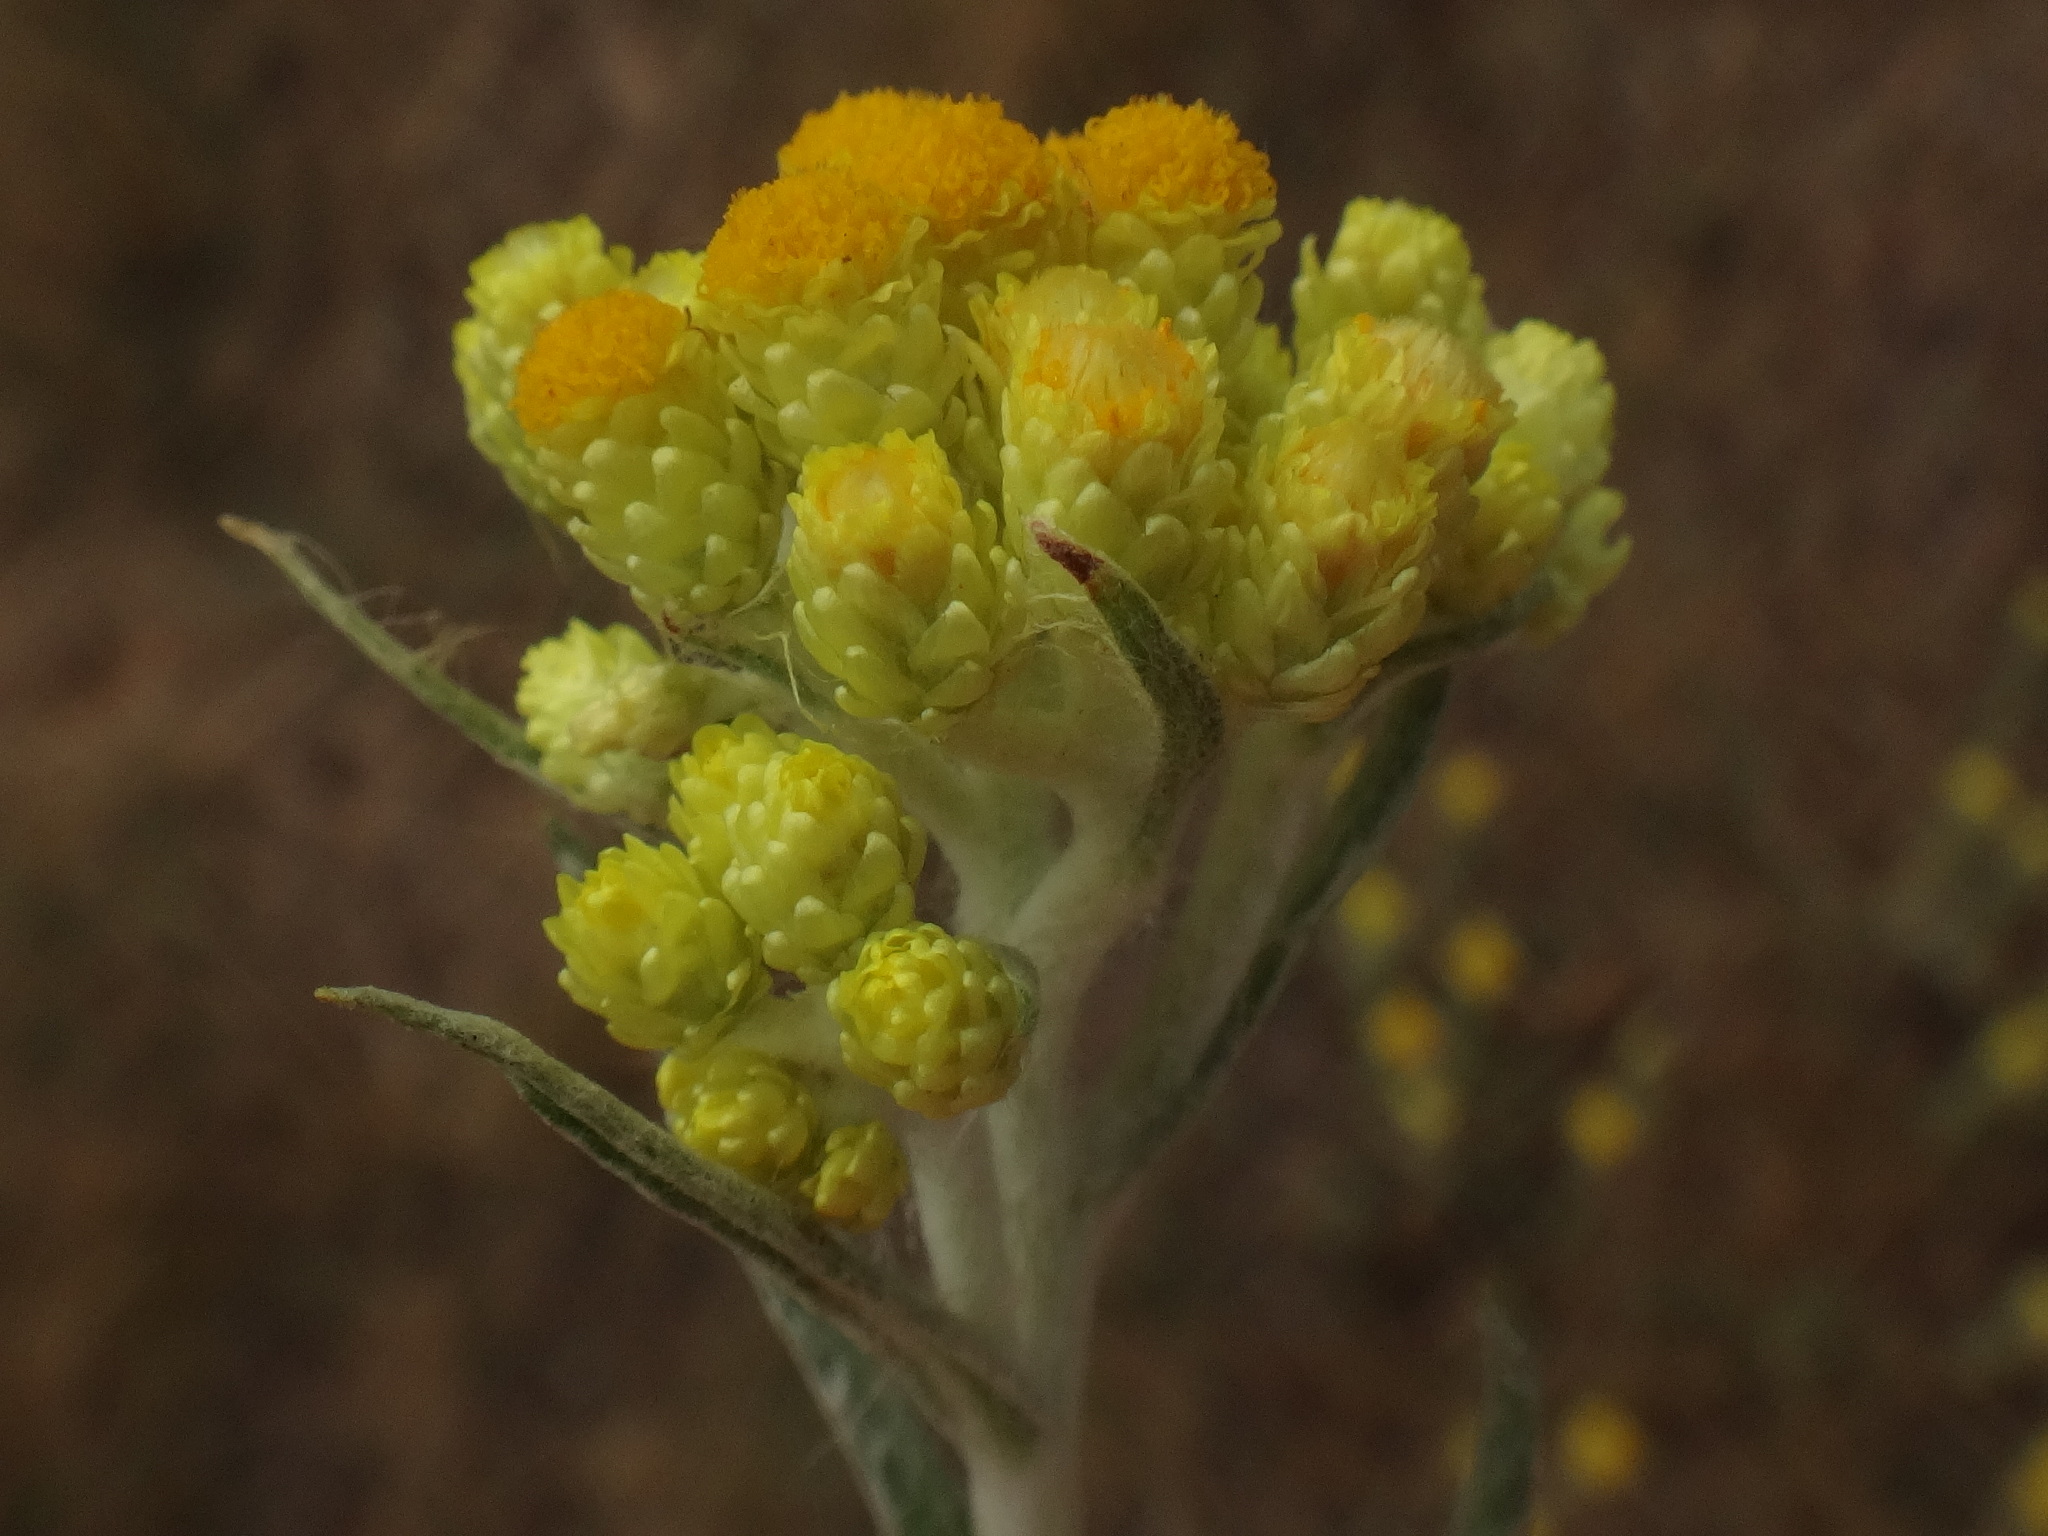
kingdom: Plantae
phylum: Tracheophyta
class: Magnoliopsida
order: Asterales
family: Asteraceae
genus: Helichrysum
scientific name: Helichrysum arenarium
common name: Strawflower
